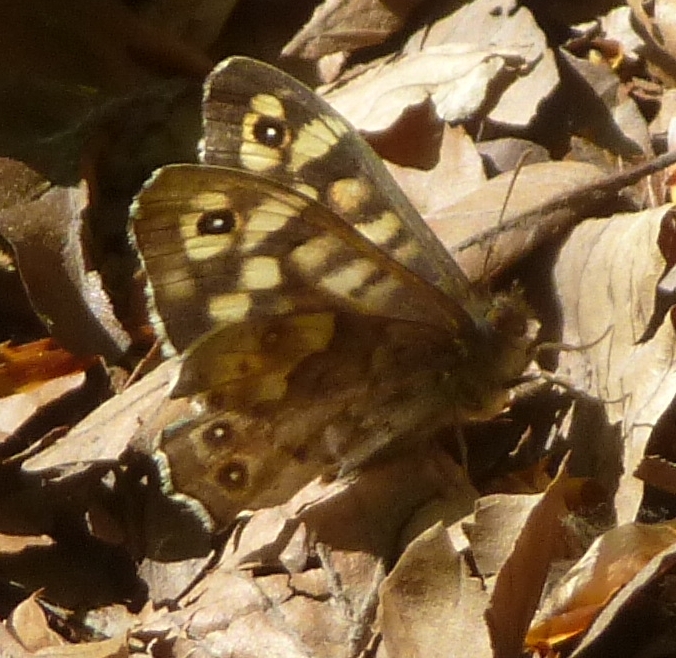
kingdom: Animalia
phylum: Arthropoda
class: Insecta
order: Lepidoptera
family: Nymphalidae
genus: Pararge
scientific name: Pararge aegeria
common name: Speckled wood
